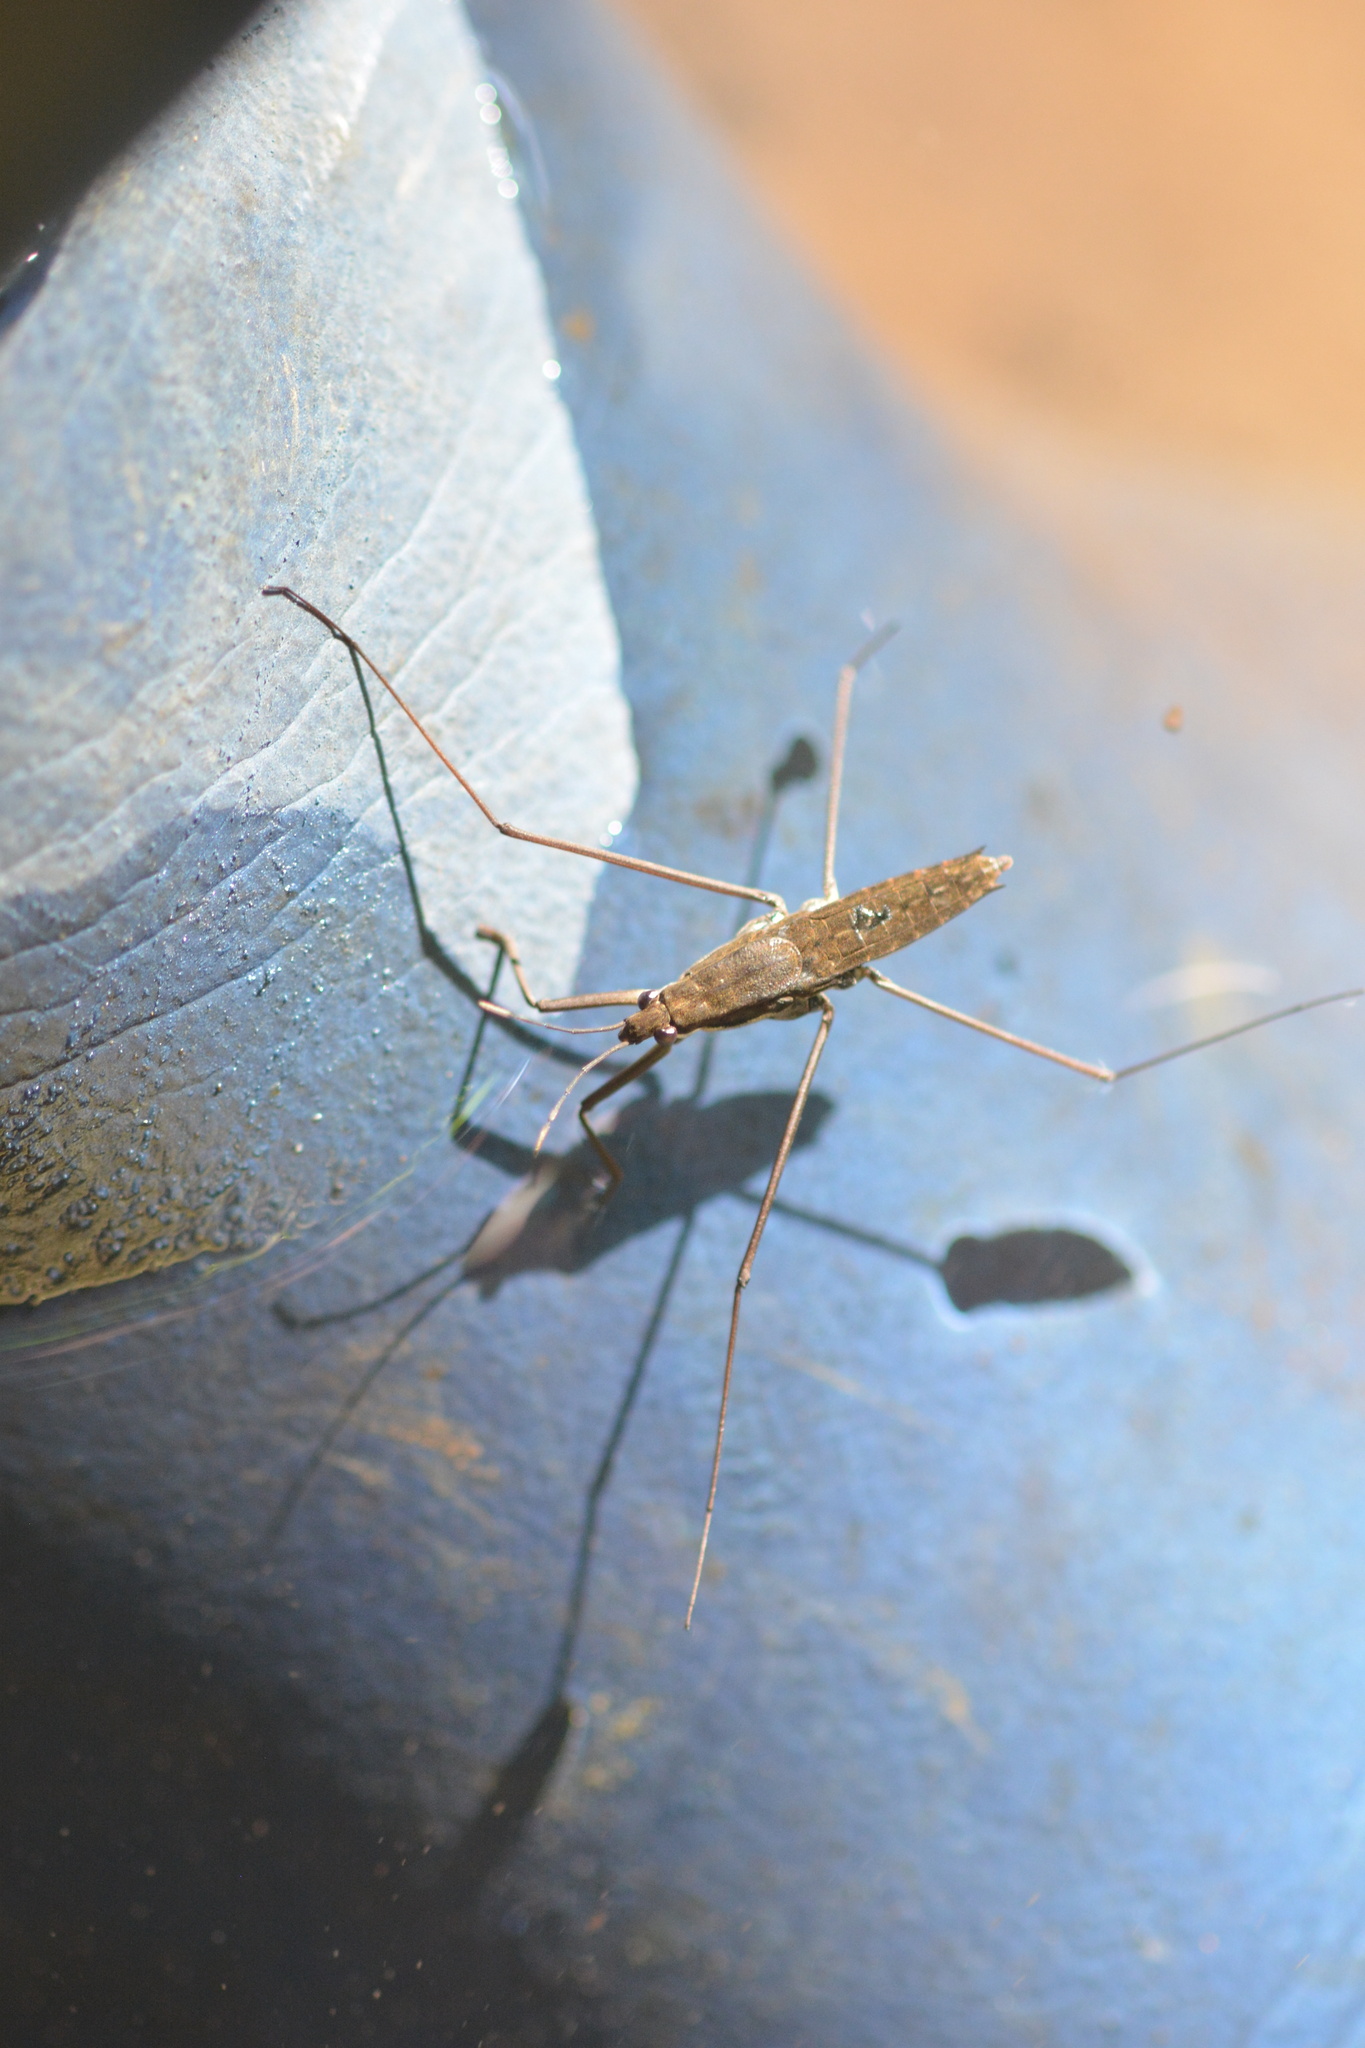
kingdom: Animalia
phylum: Arthropoda
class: Insecta
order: Hemiptera
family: Gerridae
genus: Aquarius
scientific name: Aquarius remigis
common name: Common water strider
